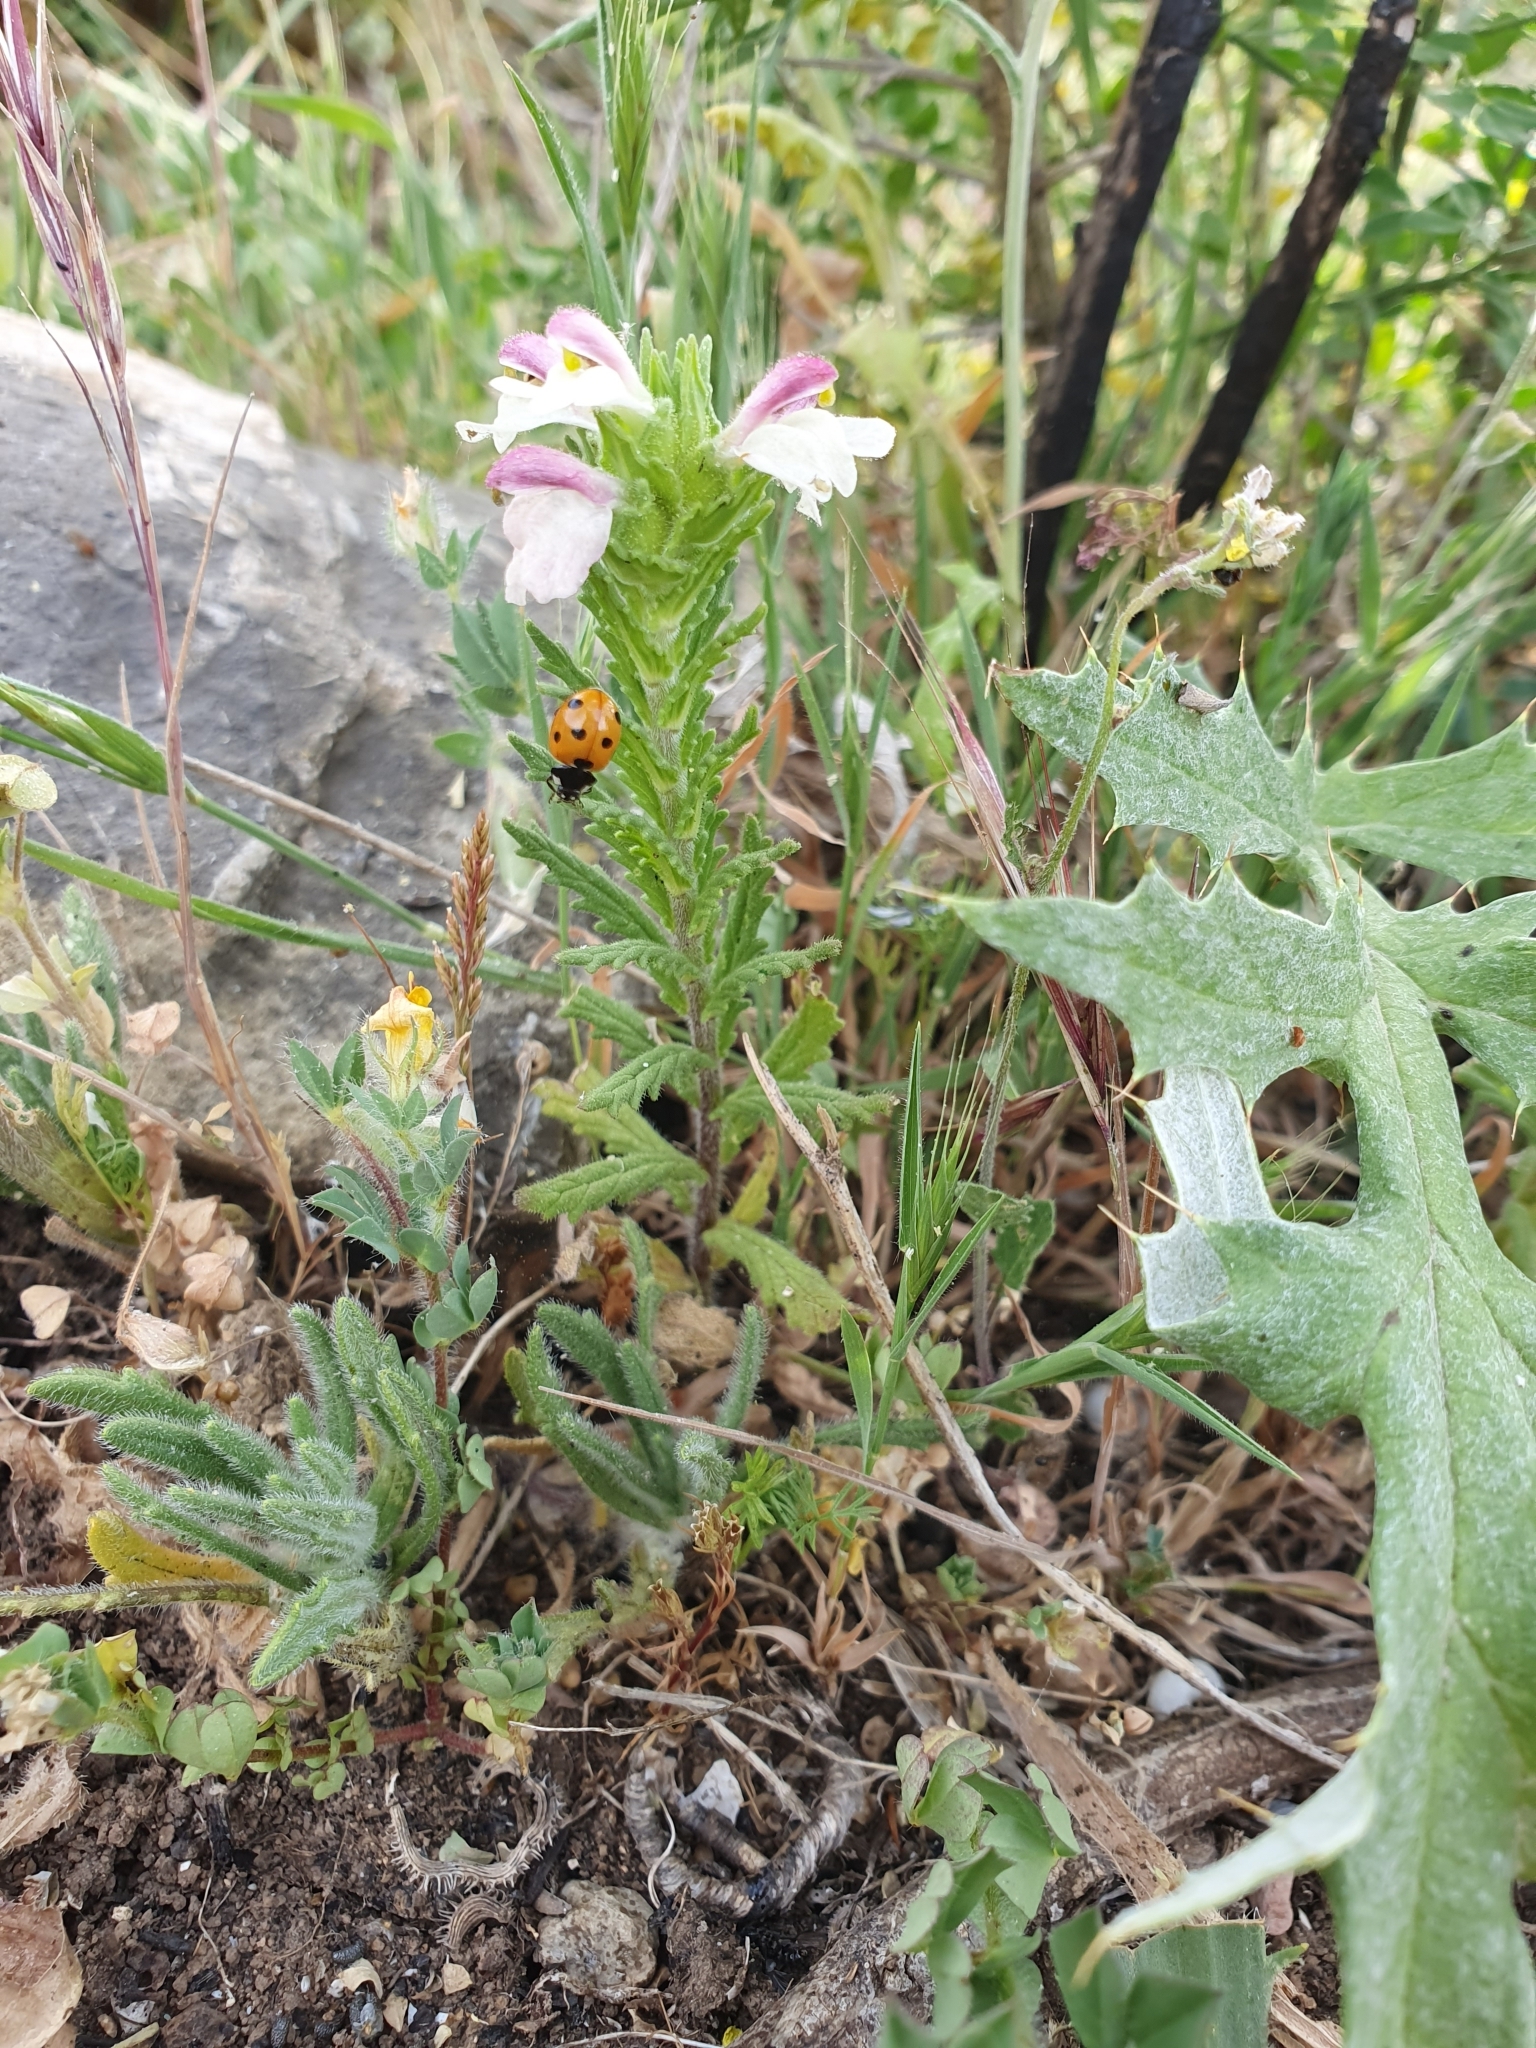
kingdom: Plantae
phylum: Tracheophyta
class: Magnoliopsida
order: Lamiales
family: Orobanchaceae
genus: Bellardia
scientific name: Bellardia trixago
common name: Mediterranean lineseed
